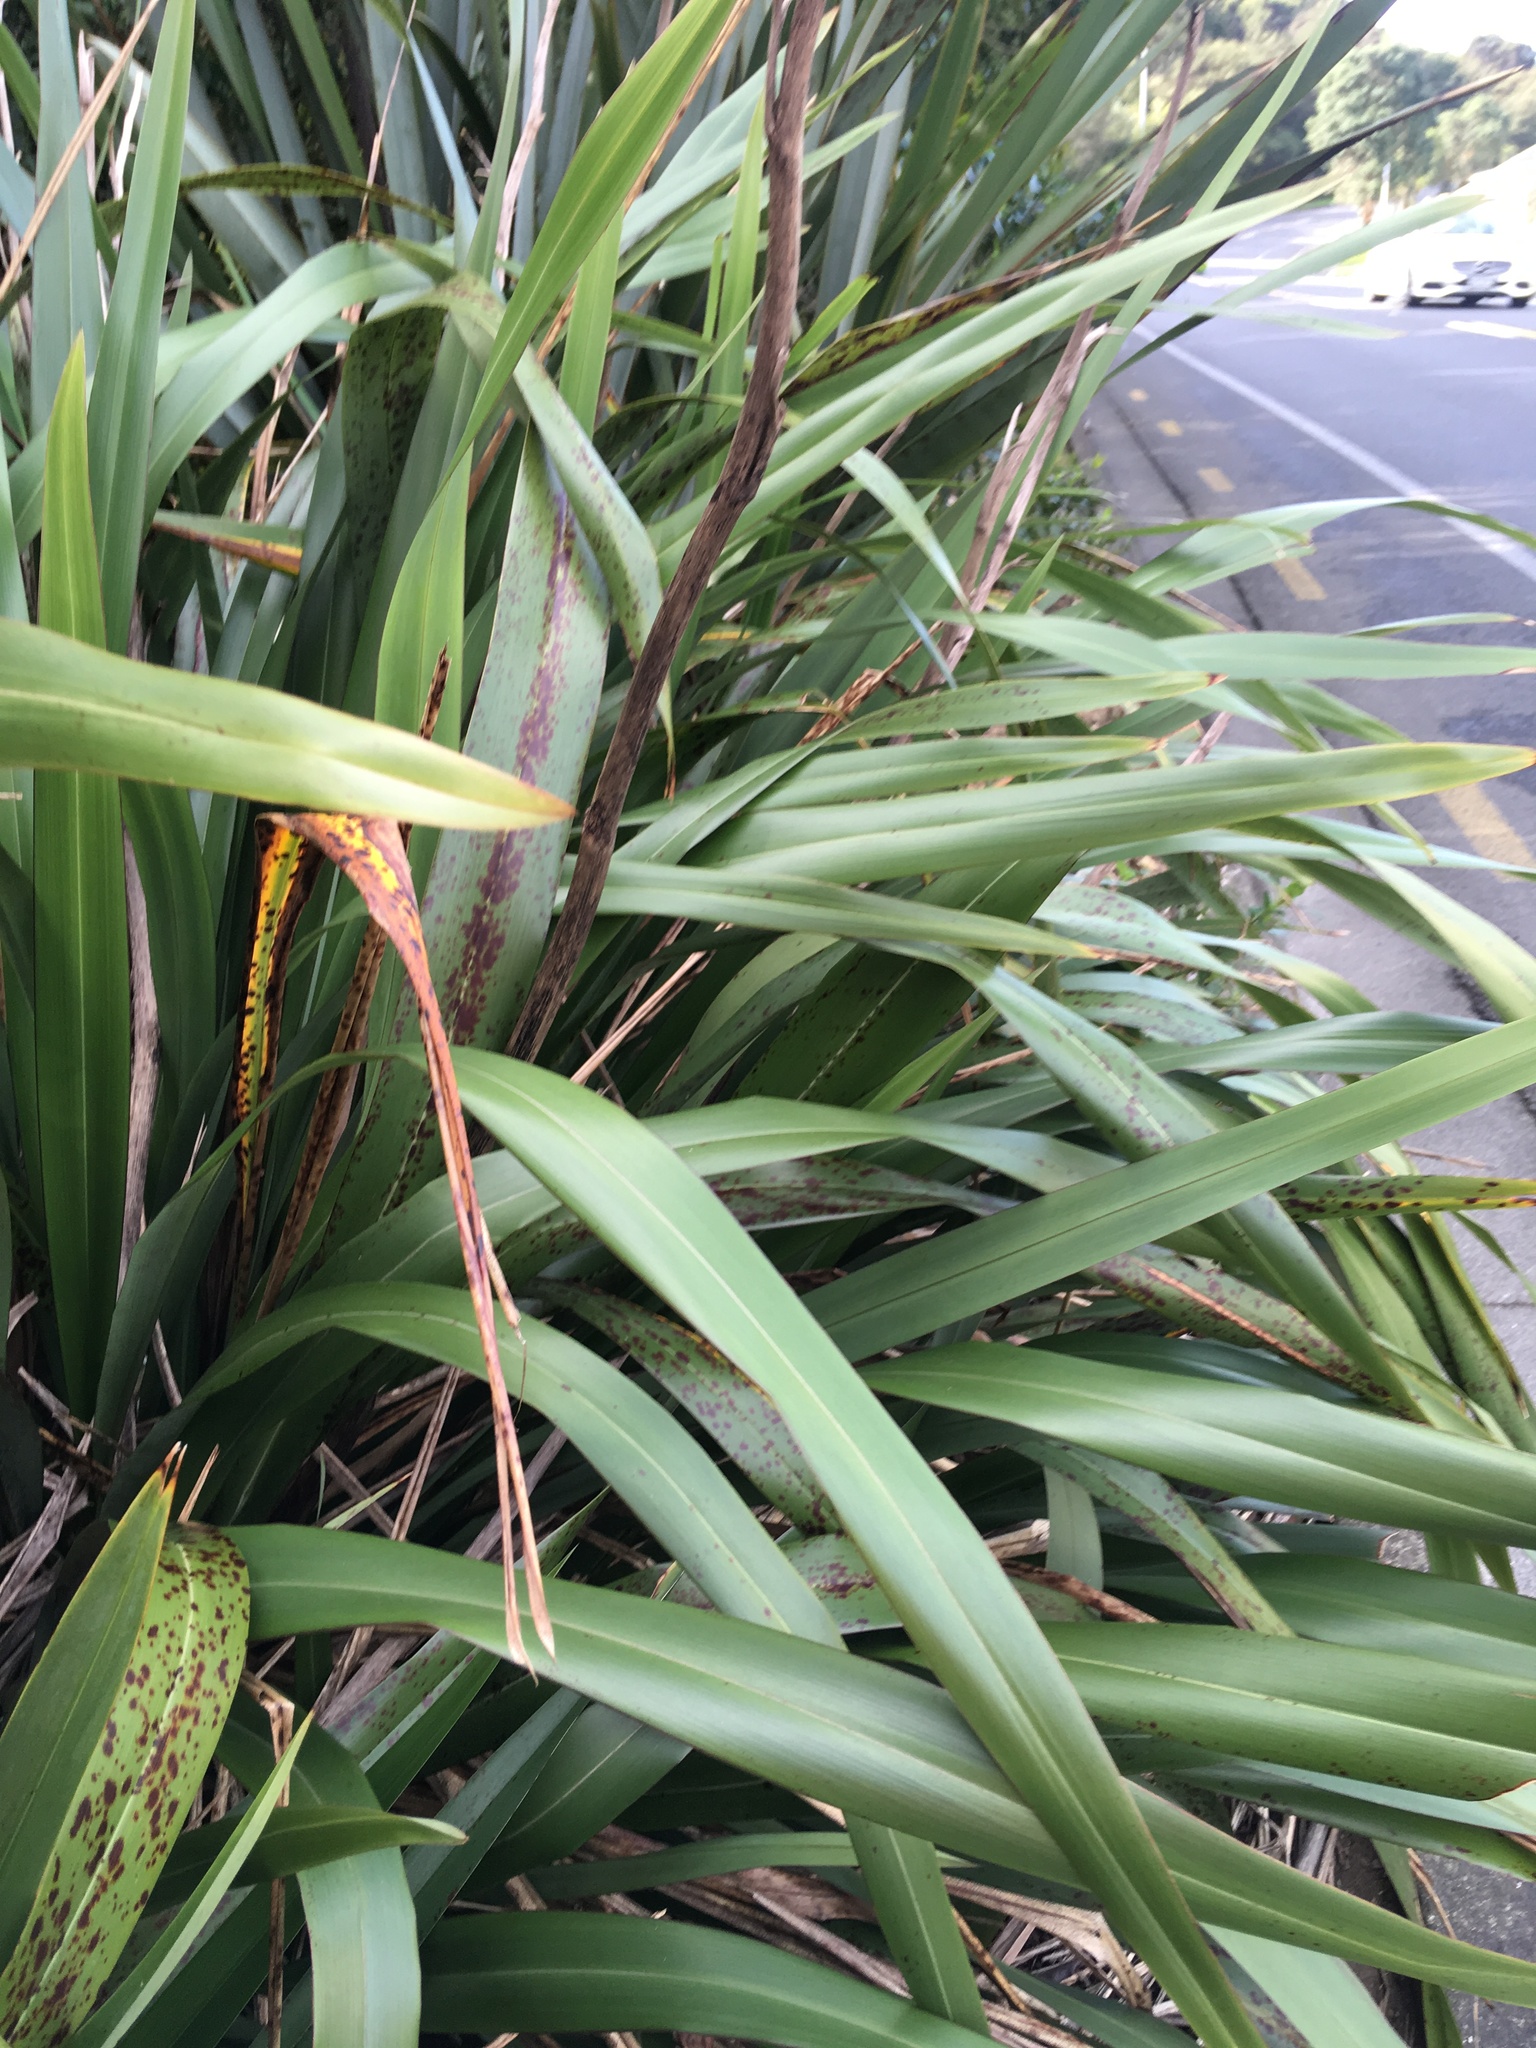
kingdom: Plantae
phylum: Tracheophyta
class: Liliopsida
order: Asparagales
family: Asphodelaceae
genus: Phormium
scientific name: Phormium tenax
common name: New zealand flax
